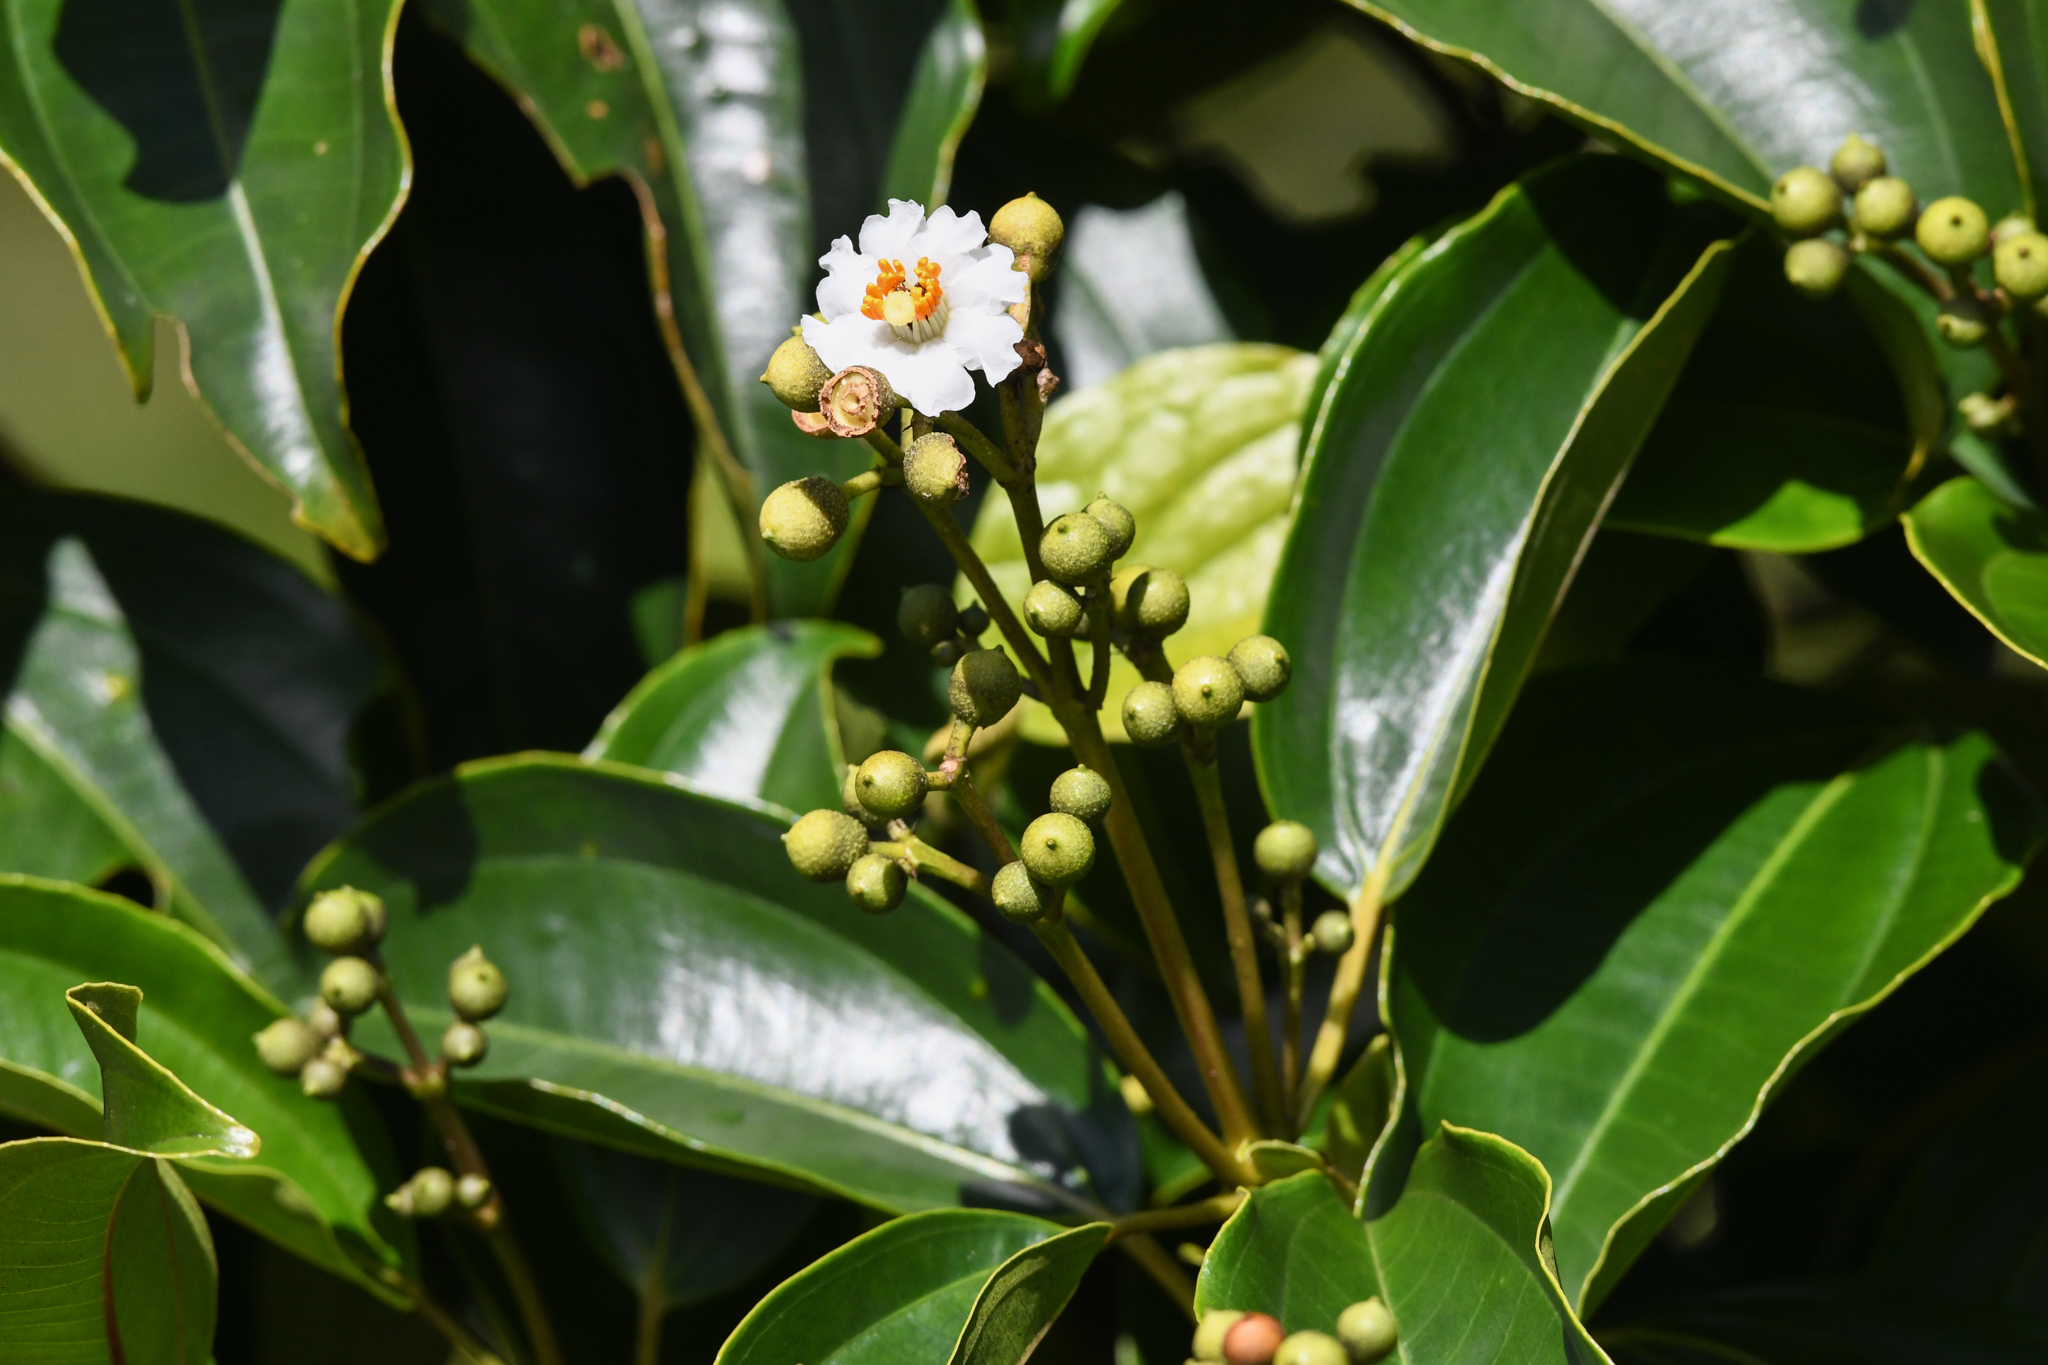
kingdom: Plantae
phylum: Tracheophyta
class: Magnoliopsida
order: Myrtales
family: Melastomataceae
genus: Miconia
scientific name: Miconia oerstediana
